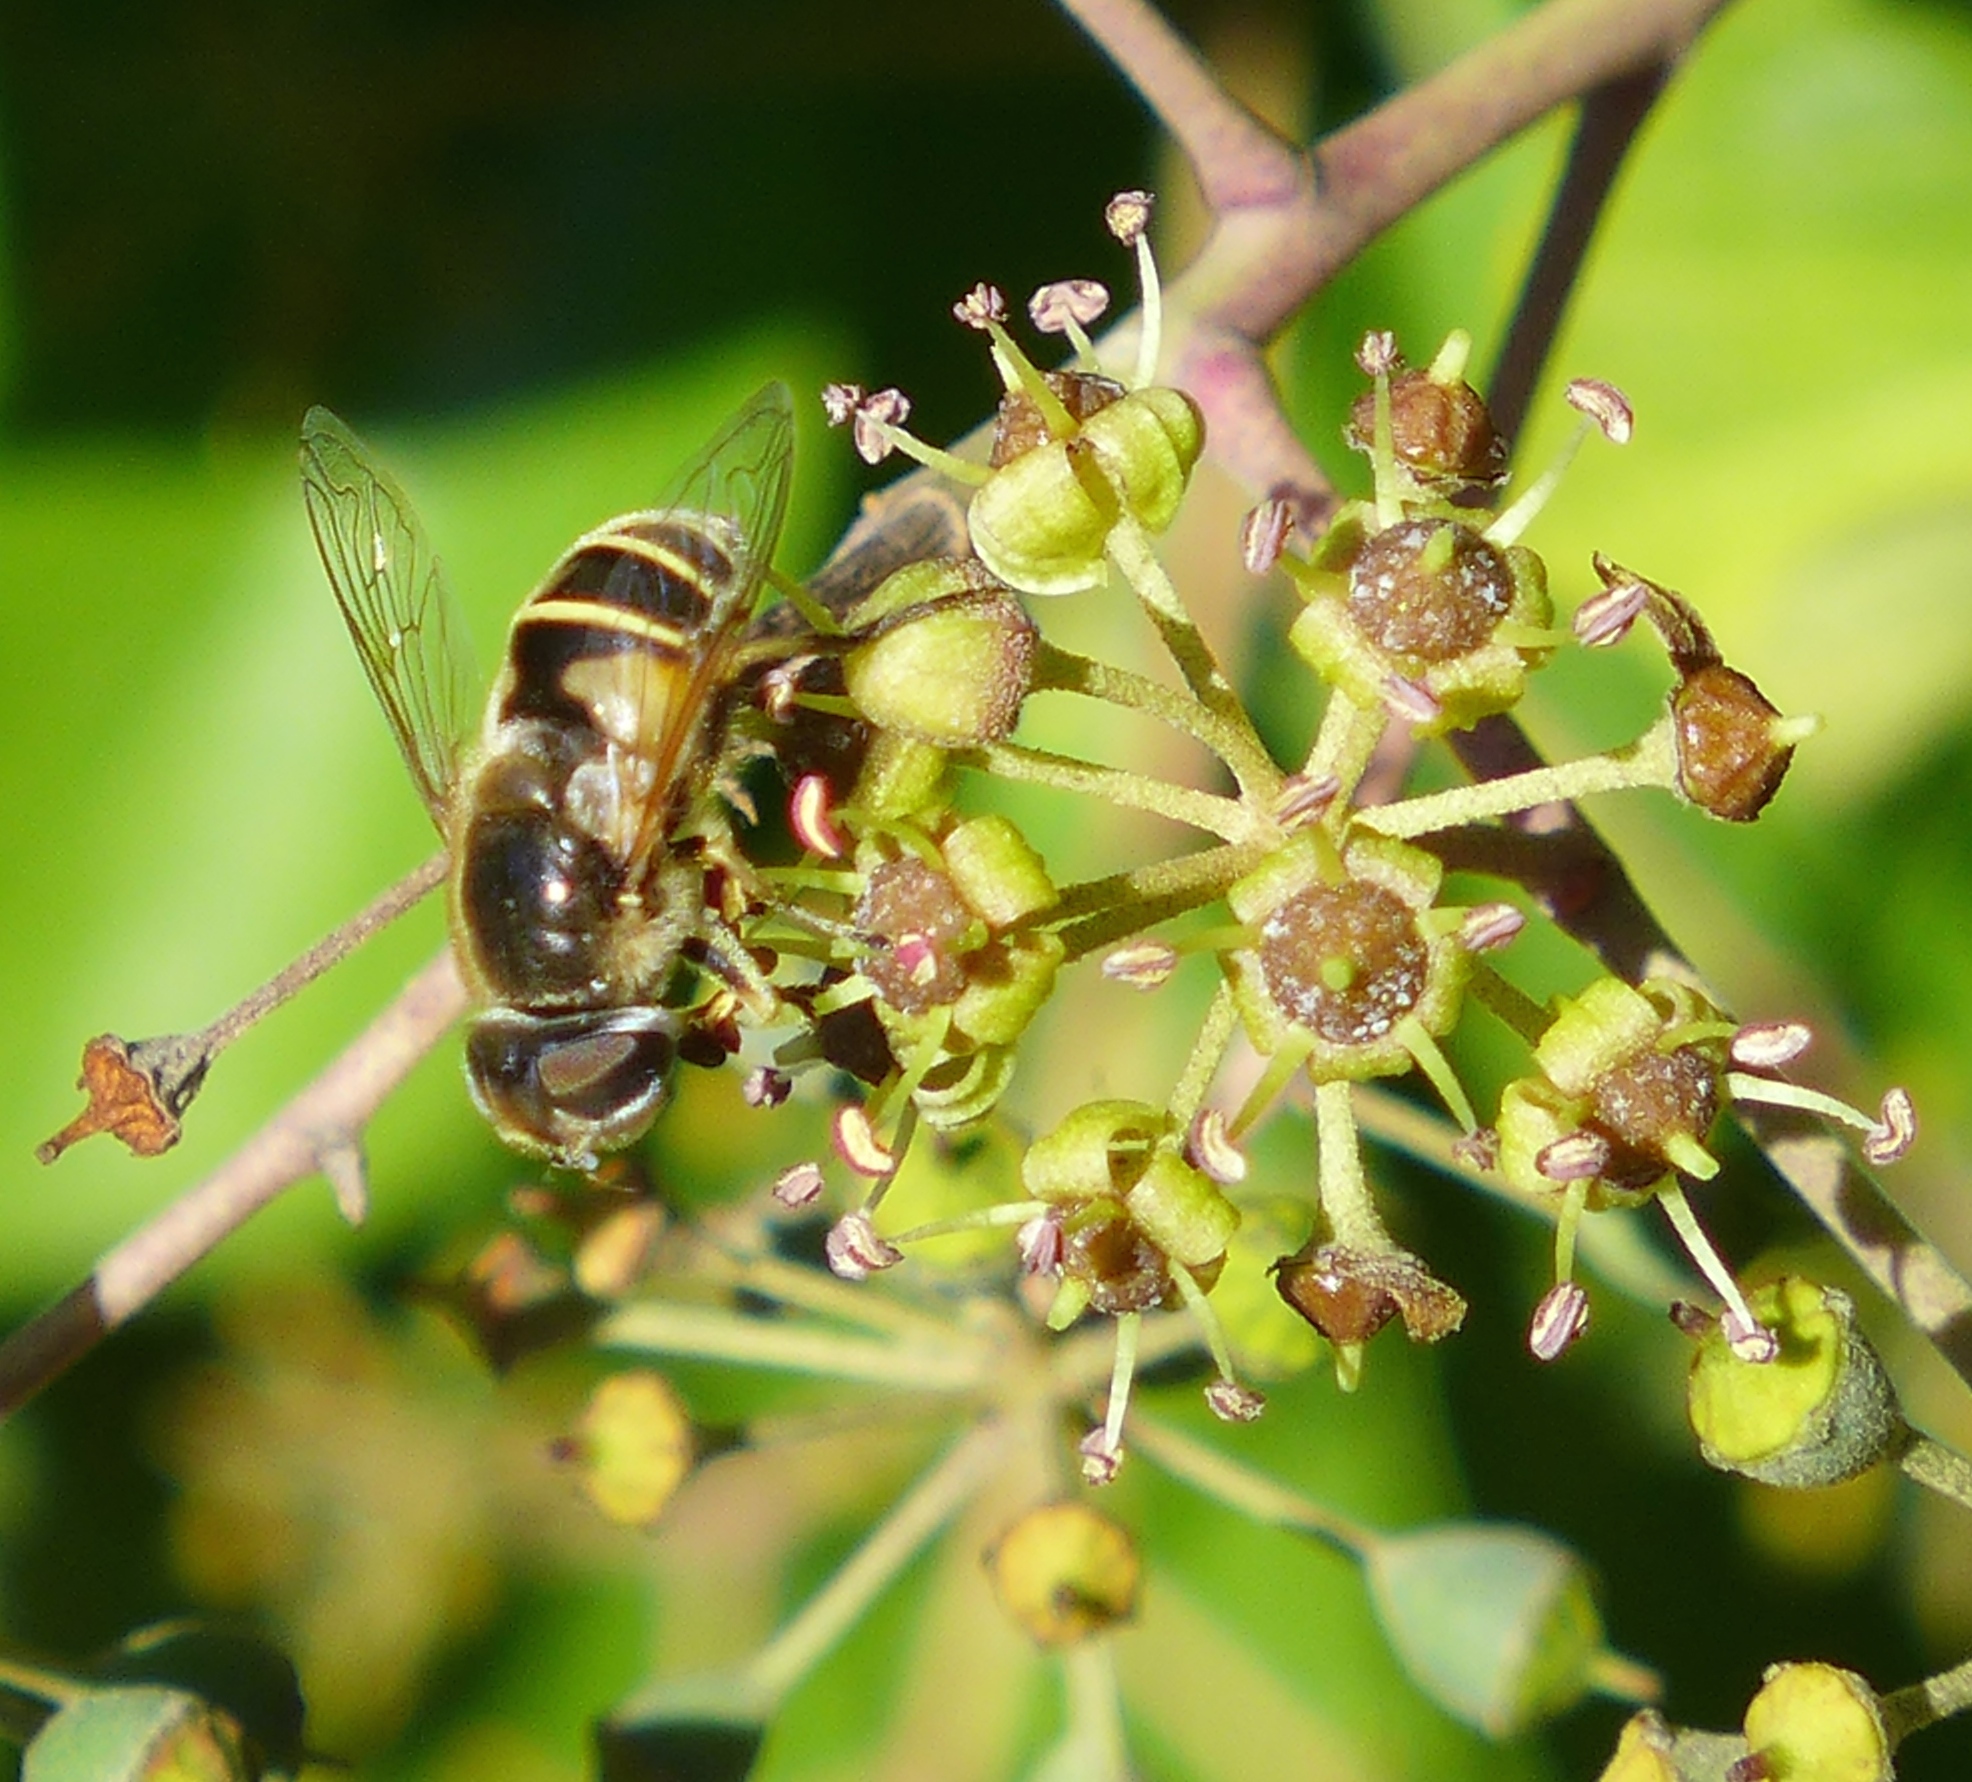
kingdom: Animalia
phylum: Arthropoda
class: Insecta
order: Diptera
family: Syrphidae
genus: Eristalis
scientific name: Eristalis hirta
